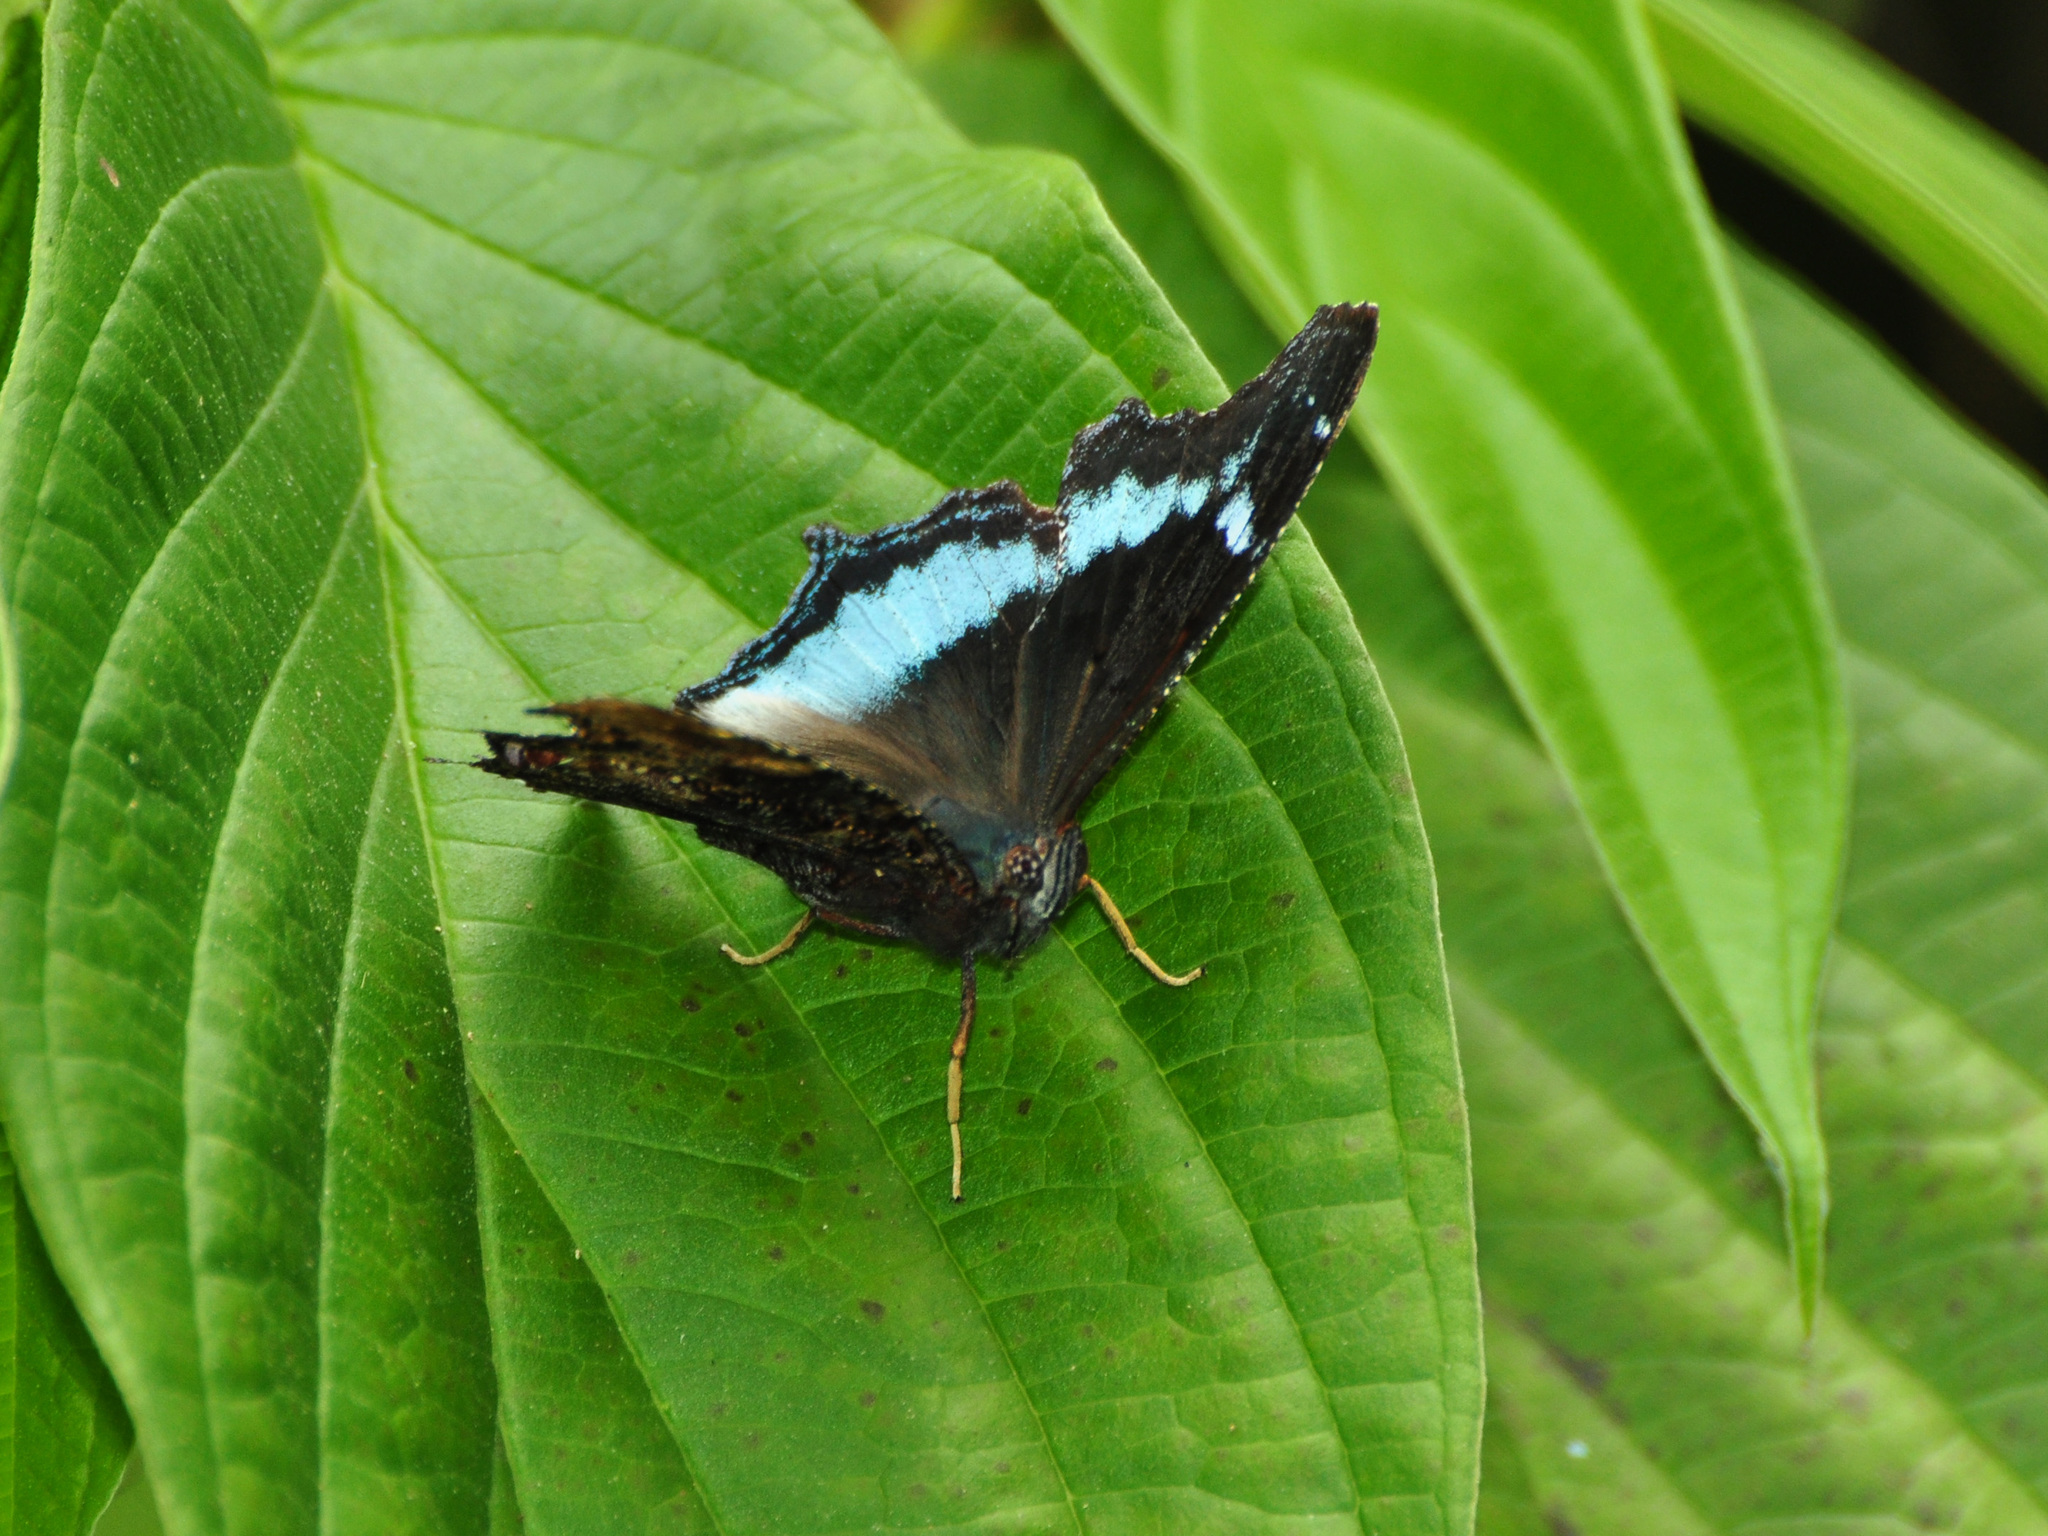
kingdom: Animalia
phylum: Arthropoda
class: Insecta
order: Lepidoptera
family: Nymphalidae
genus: Vanessa
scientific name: Vanessa Kaniska canace
